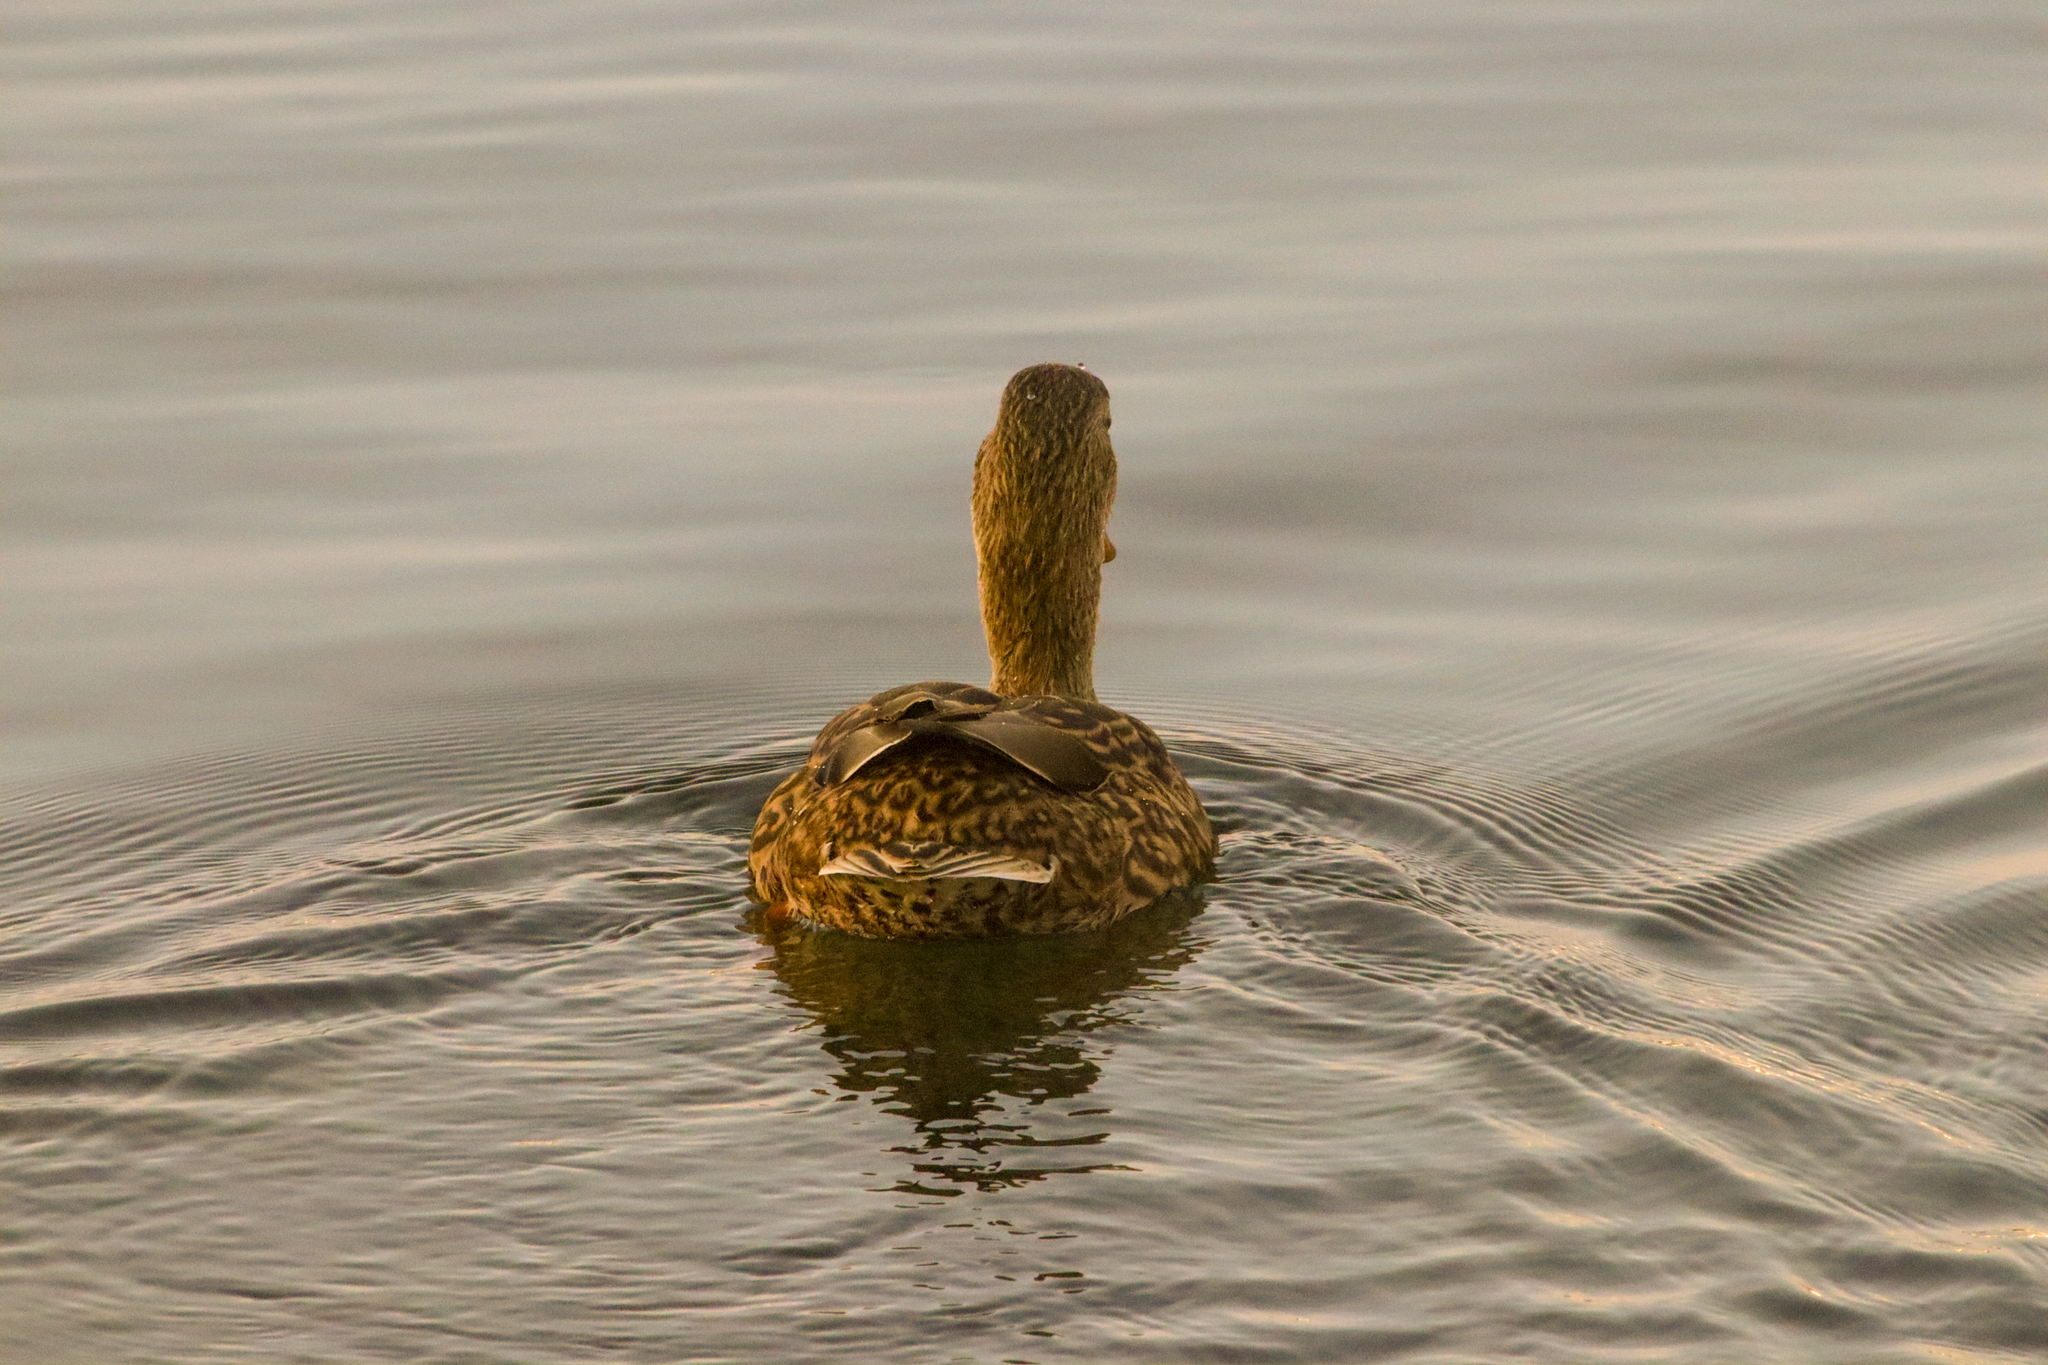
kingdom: Animalia
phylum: Chordata
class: Aves
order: Anseriformes
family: Anatidae
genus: Anas
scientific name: Anas platyrhynchos
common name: Mallard
